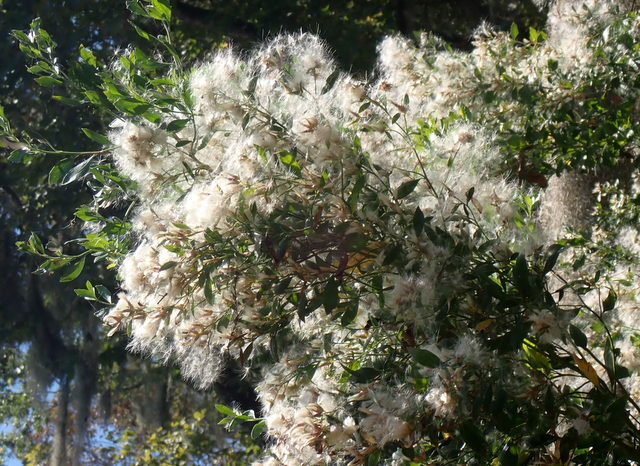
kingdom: Plantae
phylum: Tracheophyta
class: Magnoliopsida
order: Asterales
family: Asteraceae
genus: Baccharis
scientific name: Baccharis halimifolia
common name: Eastern baccharis
